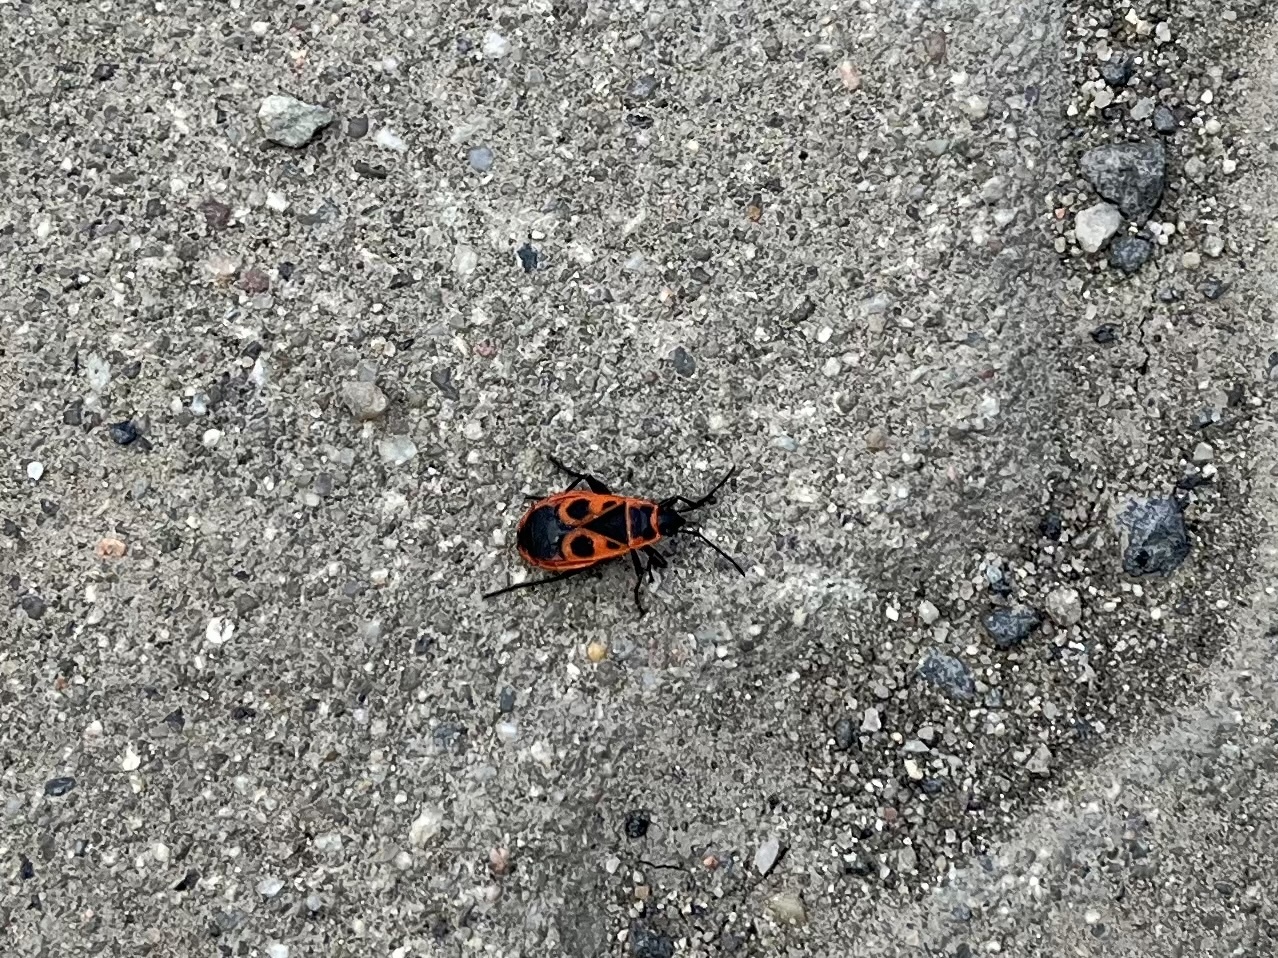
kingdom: Animalia
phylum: Arthropoda
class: Insecta
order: Hemiptera
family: Pyrrhocoridae
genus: Pyrrhocoris
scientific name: Pyrrhocoris apterus
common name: Firebug
